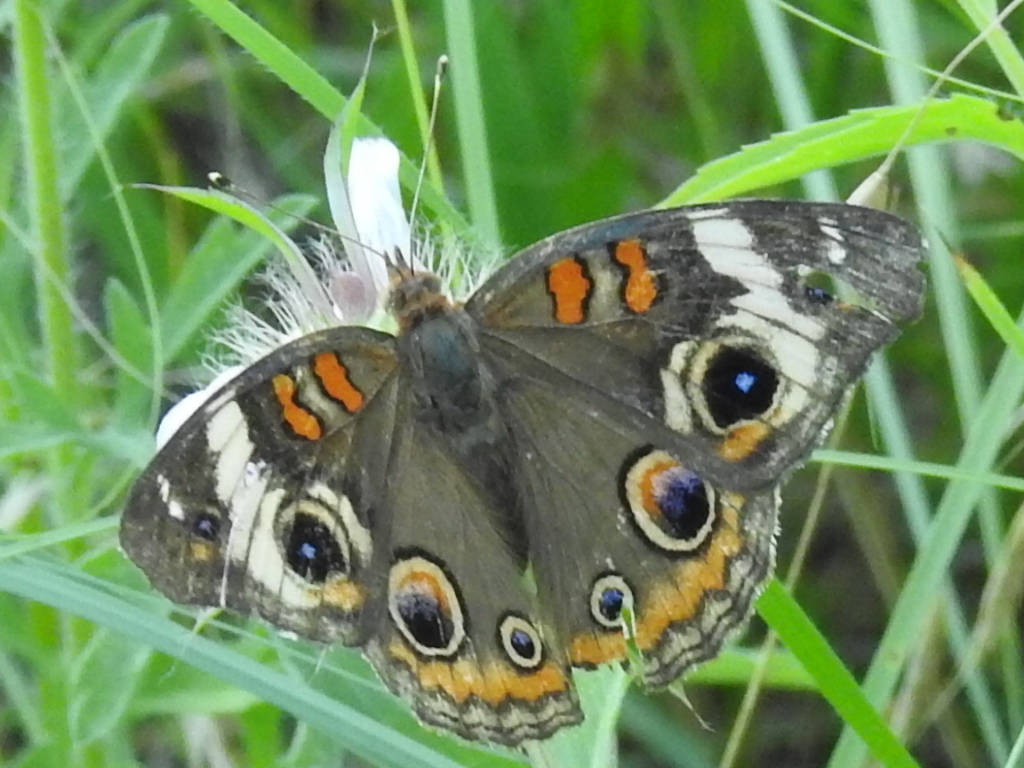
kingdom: Animalia
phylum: Arthropoda
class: Insecta
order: Lepidoptera
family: Nymphalidae
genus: Junonia
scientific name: Junonia coenia
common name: Common buckeye
